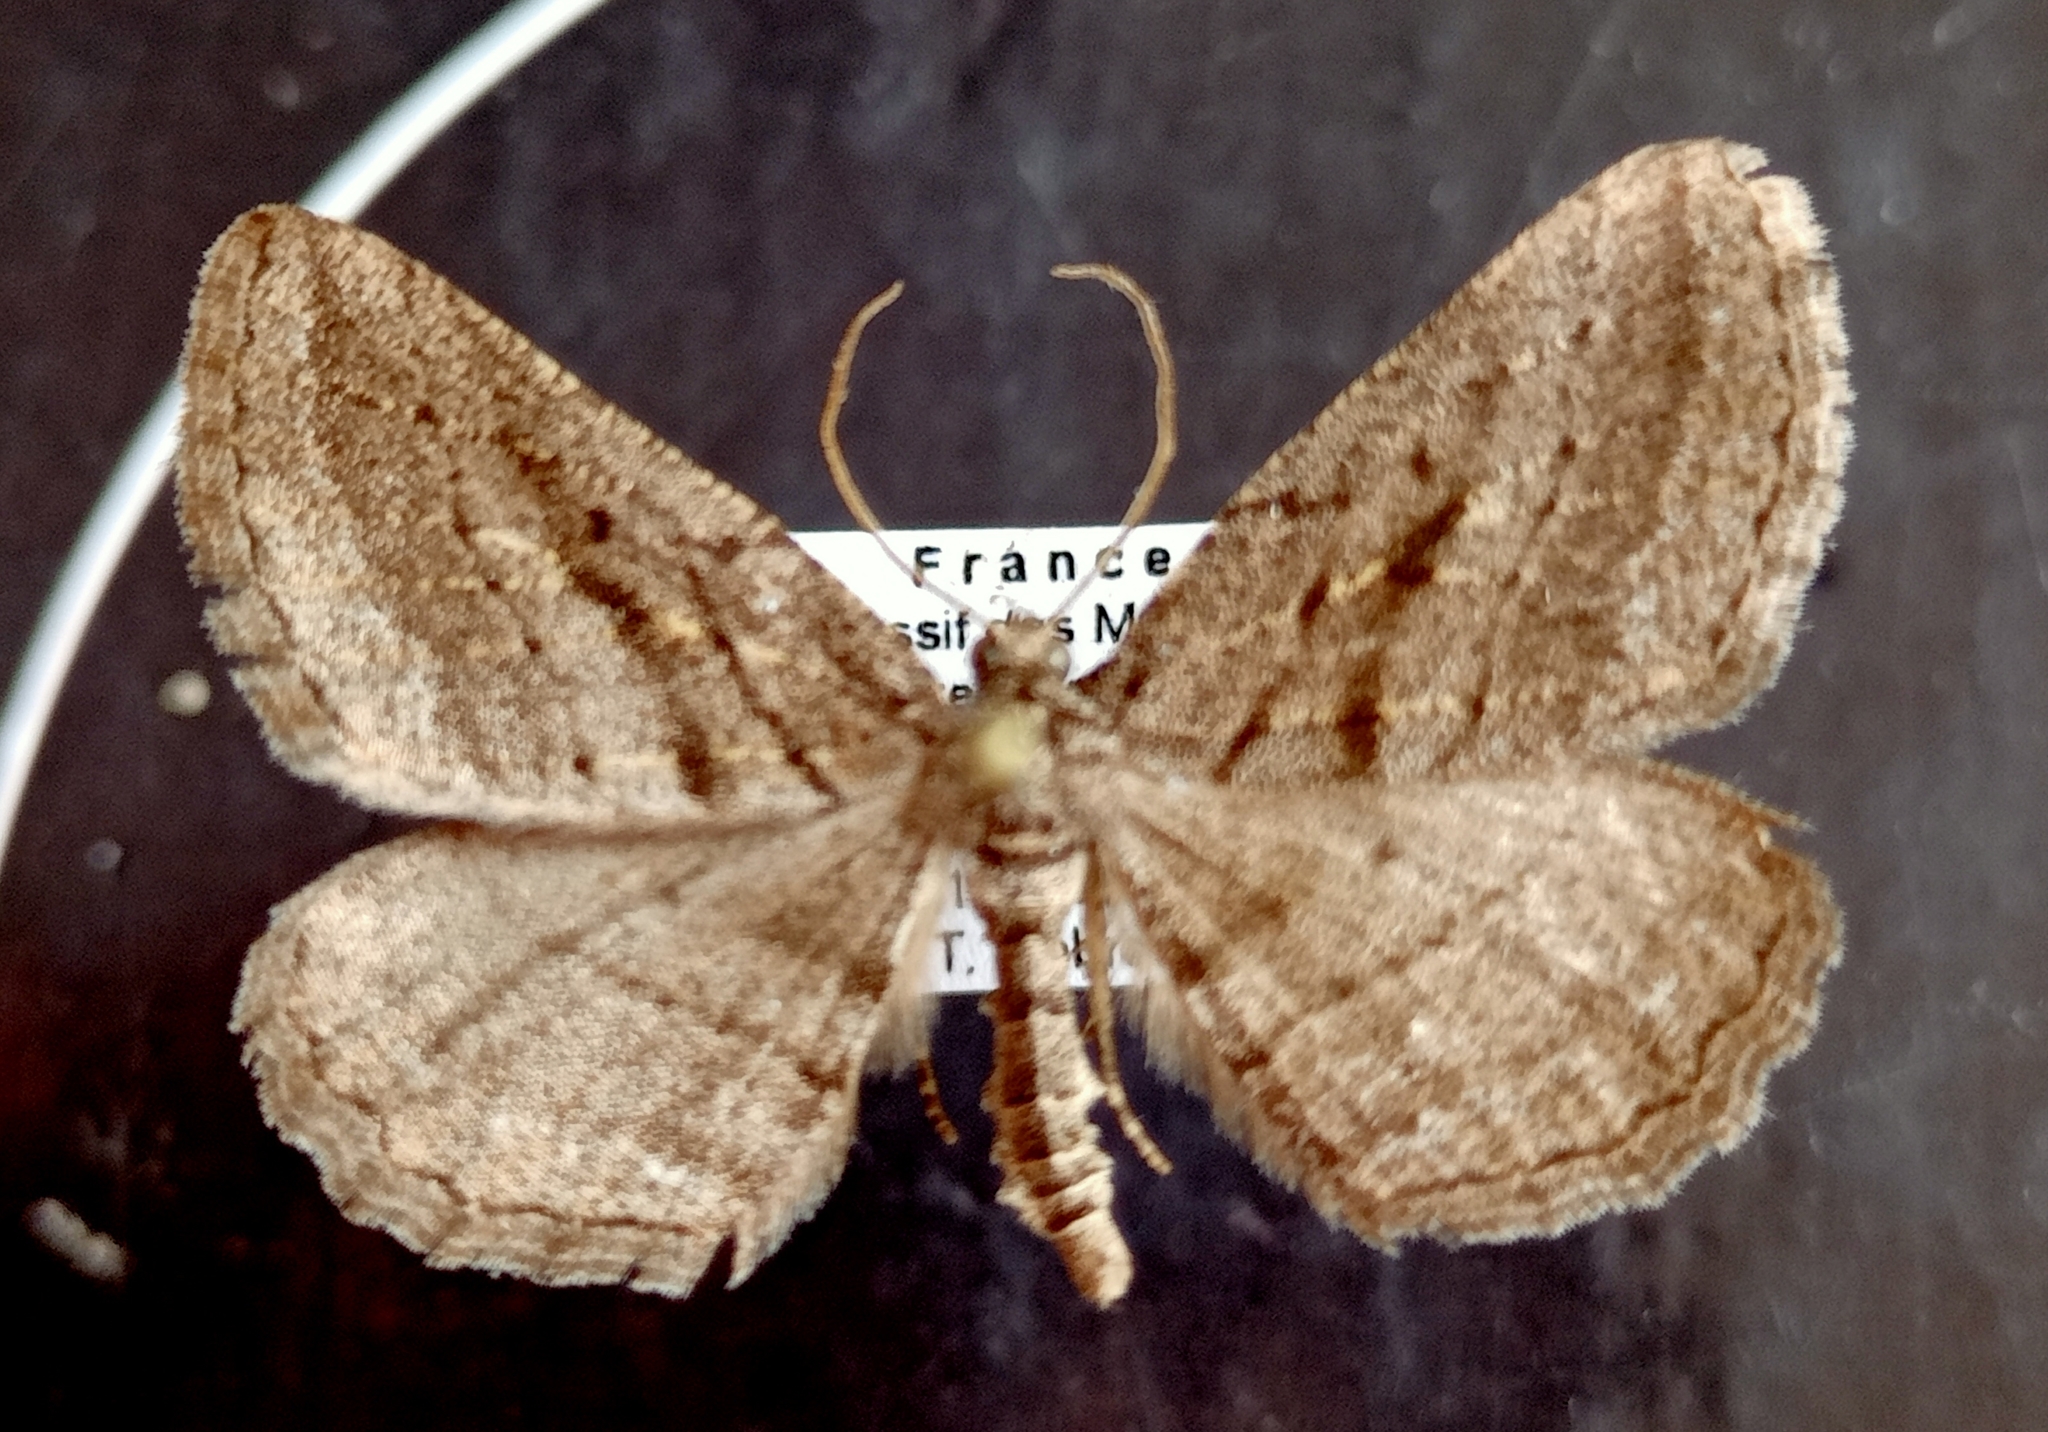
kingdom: Animalia
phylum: Arthropoda
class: Insecta
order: Lepidoptera
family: Geometridae
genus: Rhoptria
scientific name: Rhoptria asperaria
